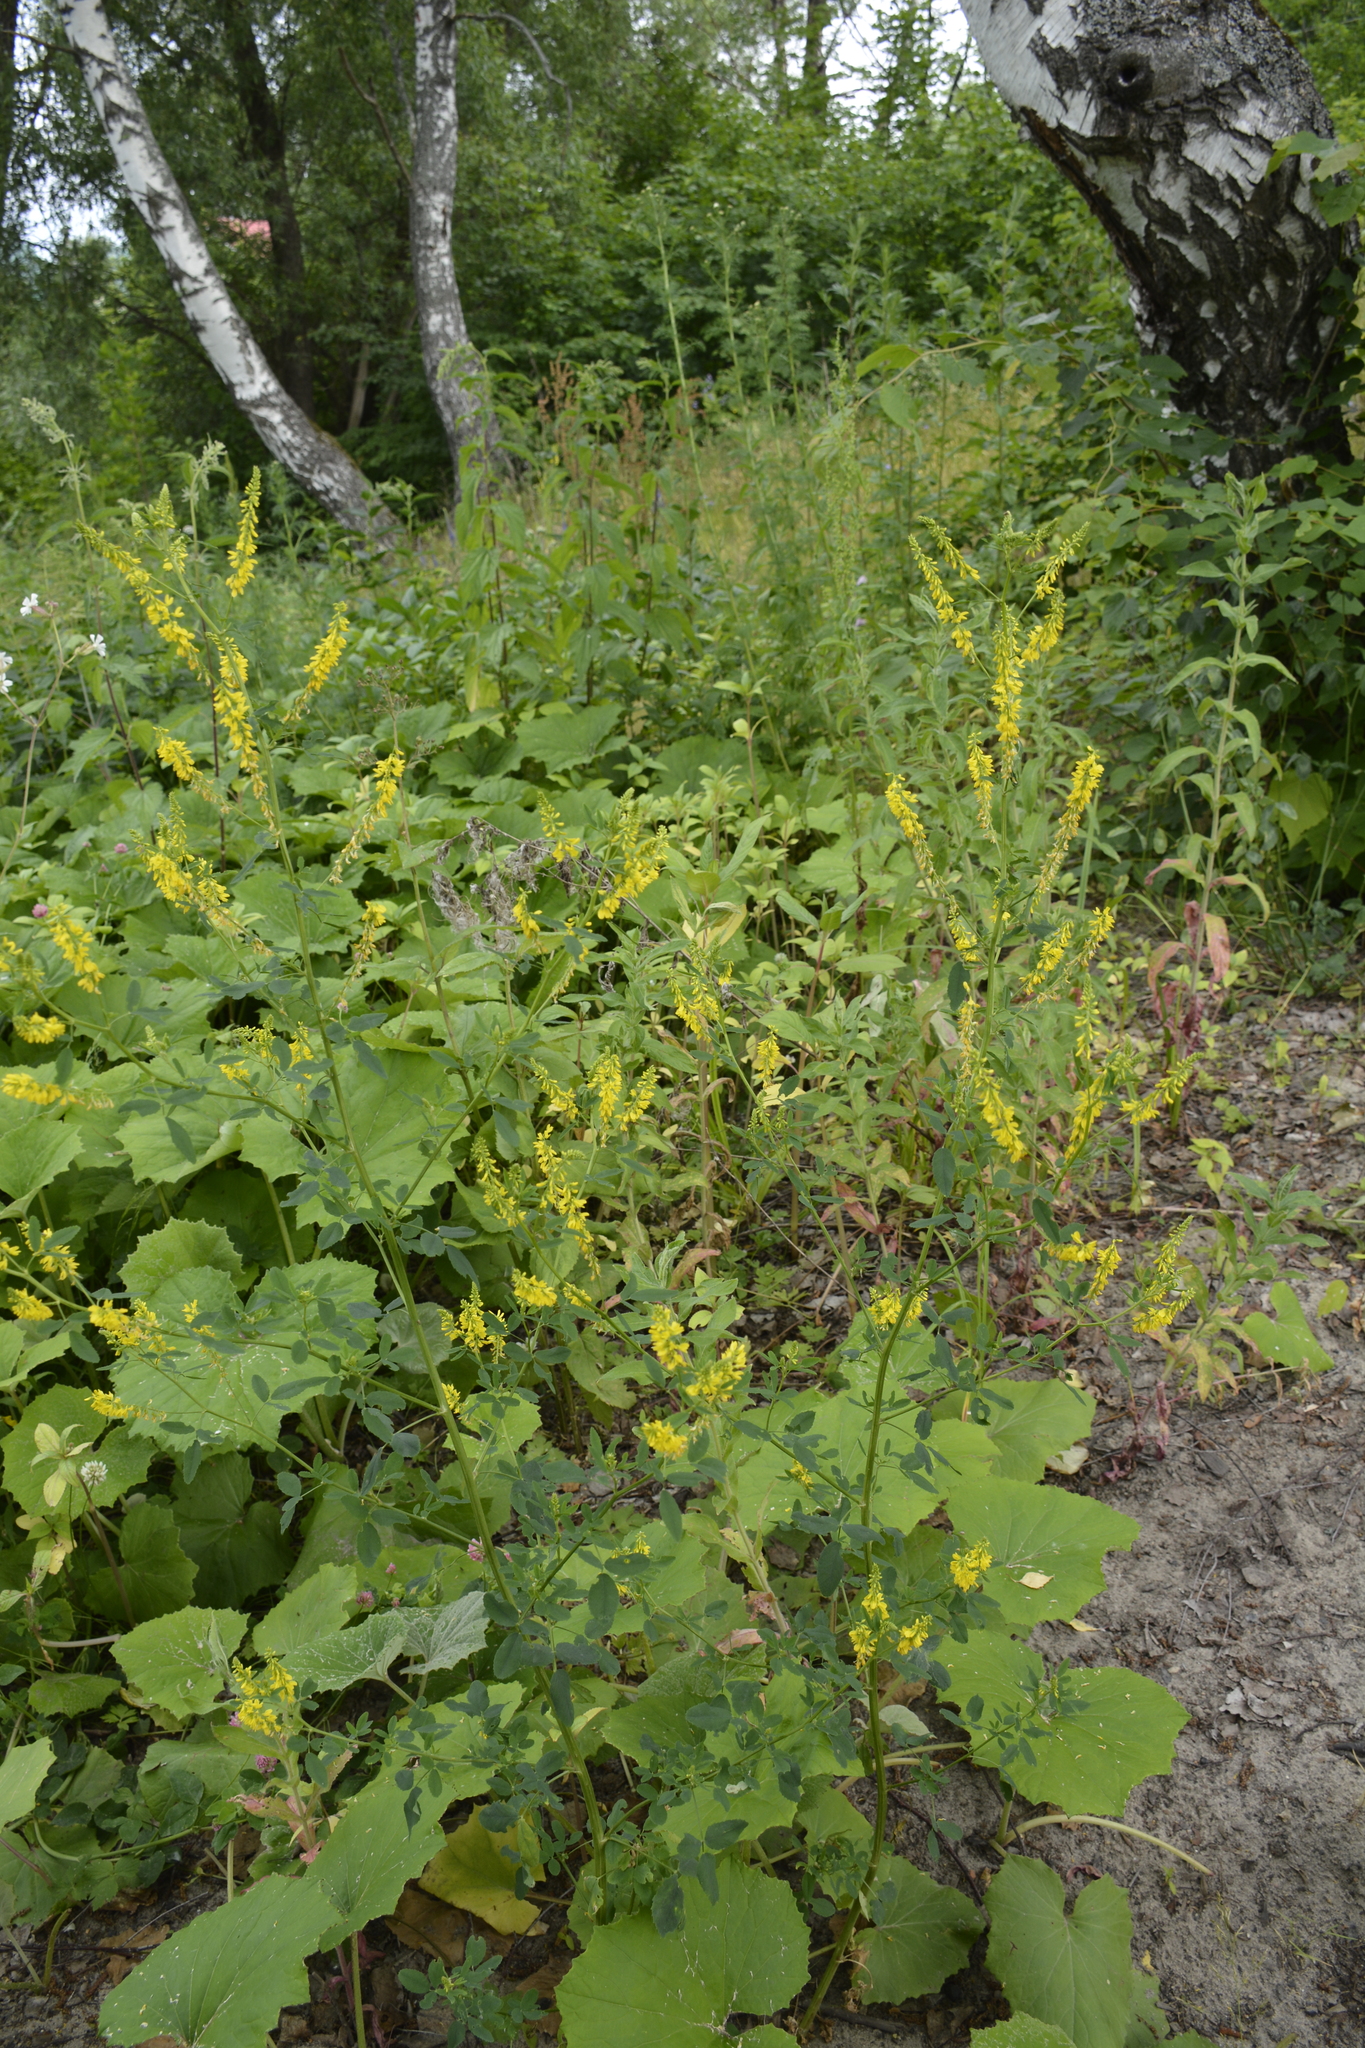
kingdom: Plantae
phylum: Tracheophyta
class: Magnoliopsida
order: Fabales
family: Fabaceae
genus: Melilotus
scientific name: Melilotus officinalis
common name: Sweetclover
